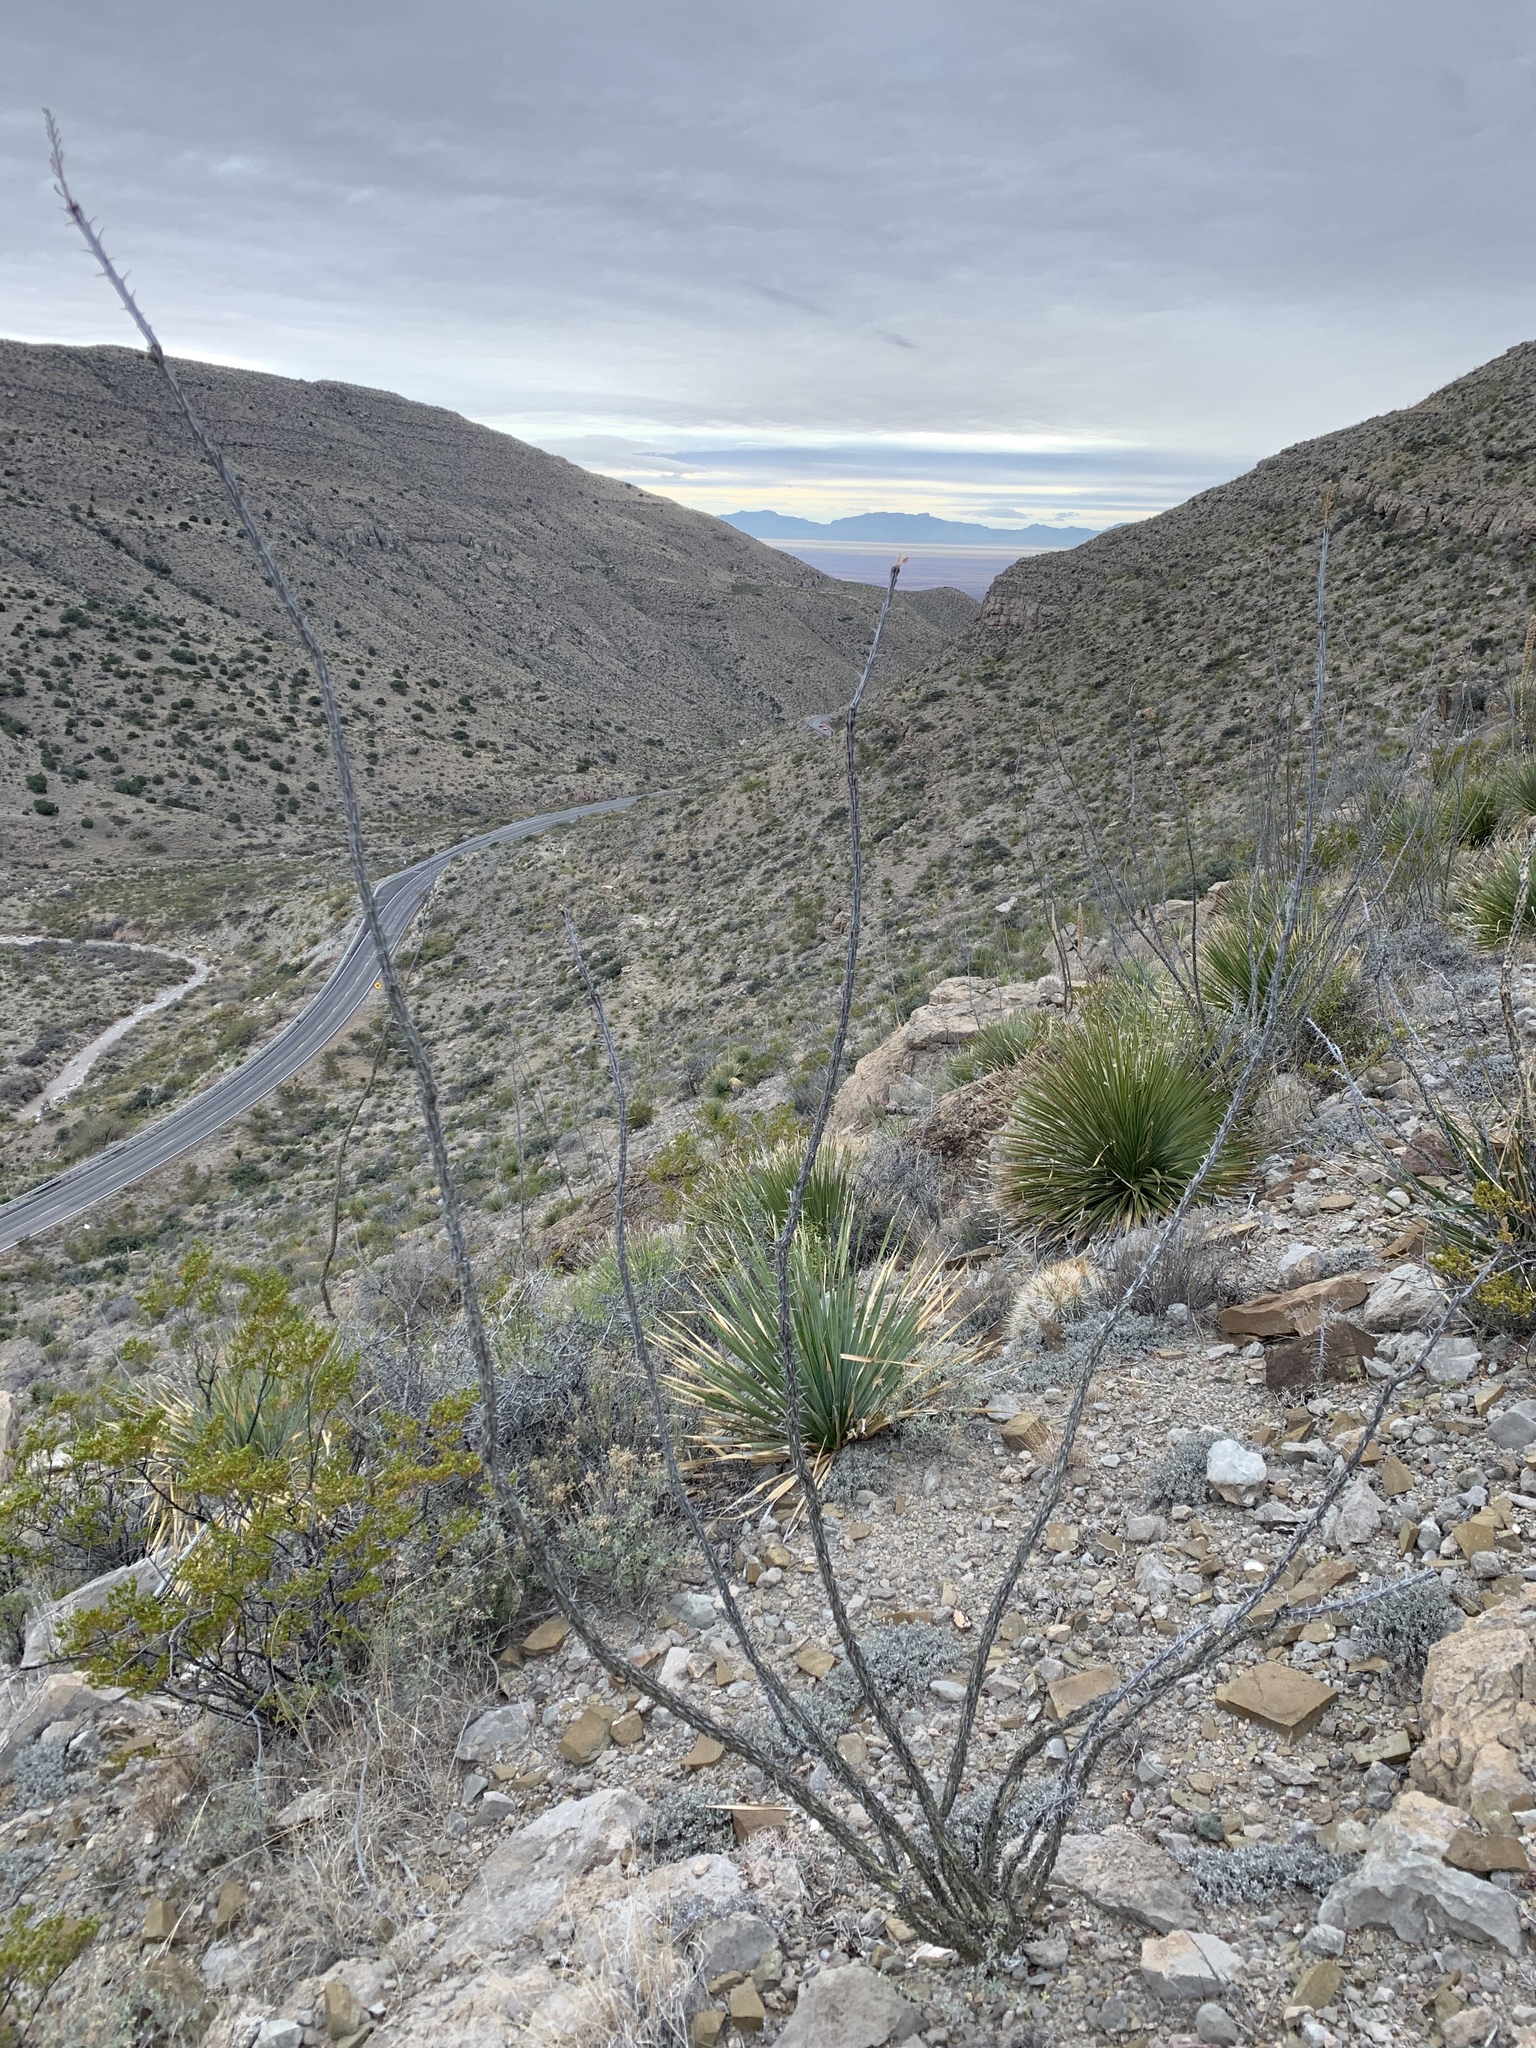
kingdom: Plantae
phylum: Tracheophyta
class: Magnoliopsida
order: Ericales
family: Fouquieriaceae
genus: Fouquieria
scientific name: Fouquieria splendens
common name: Vine-cactus
